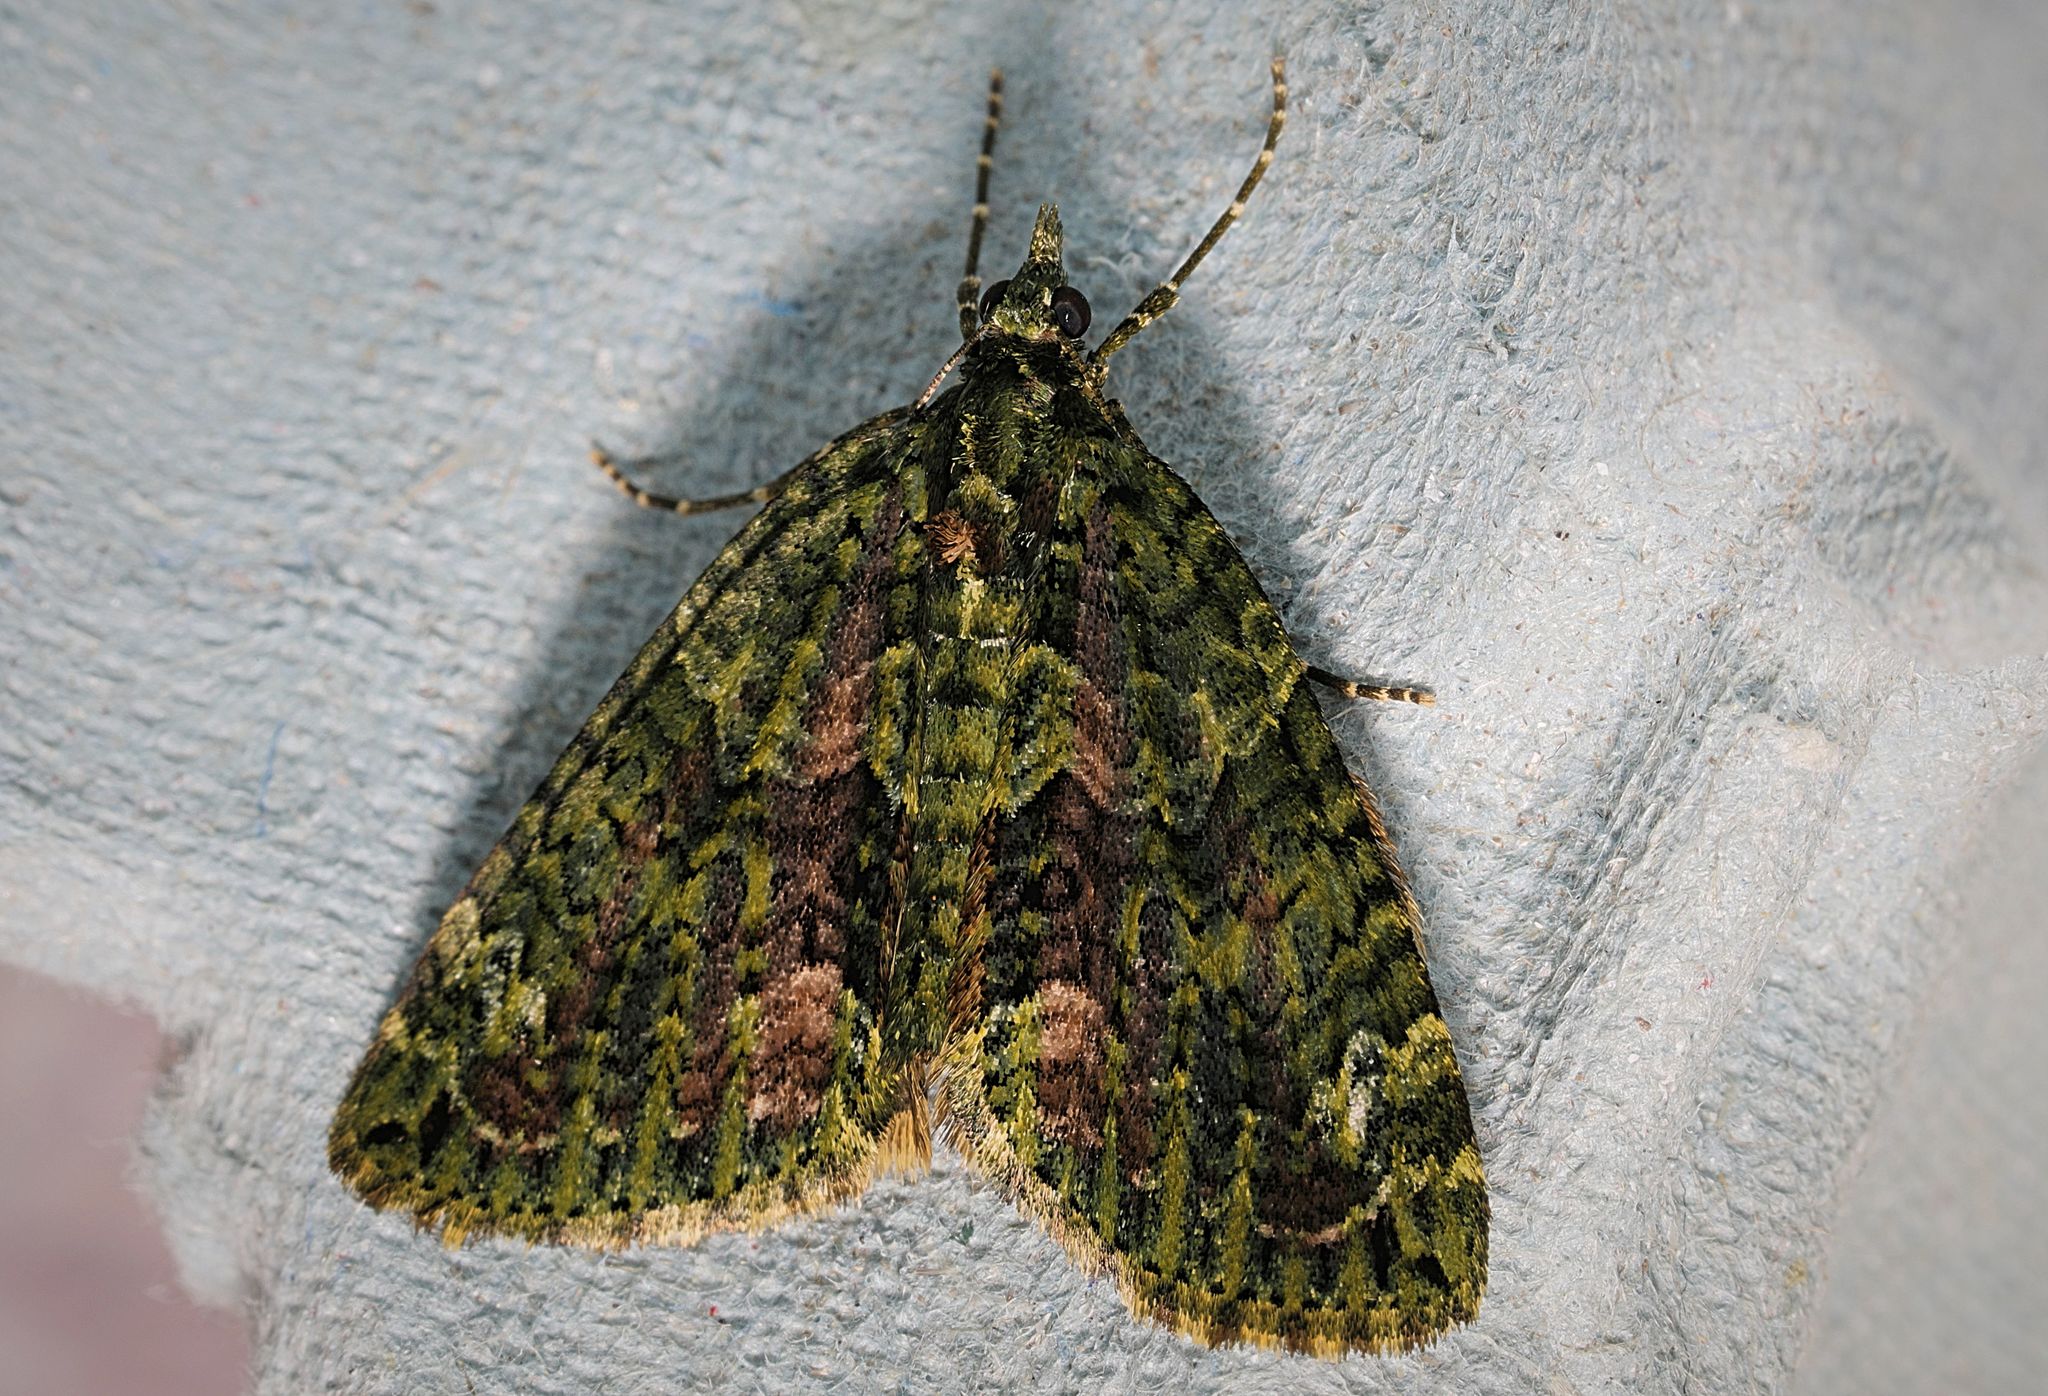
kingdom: Animalia
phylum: Arthropoda
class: Insecta
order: Lepidoptera
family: Geometridae
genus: Chloroclysta
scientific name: Chloroclysta siterata
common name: Red-green carpet
